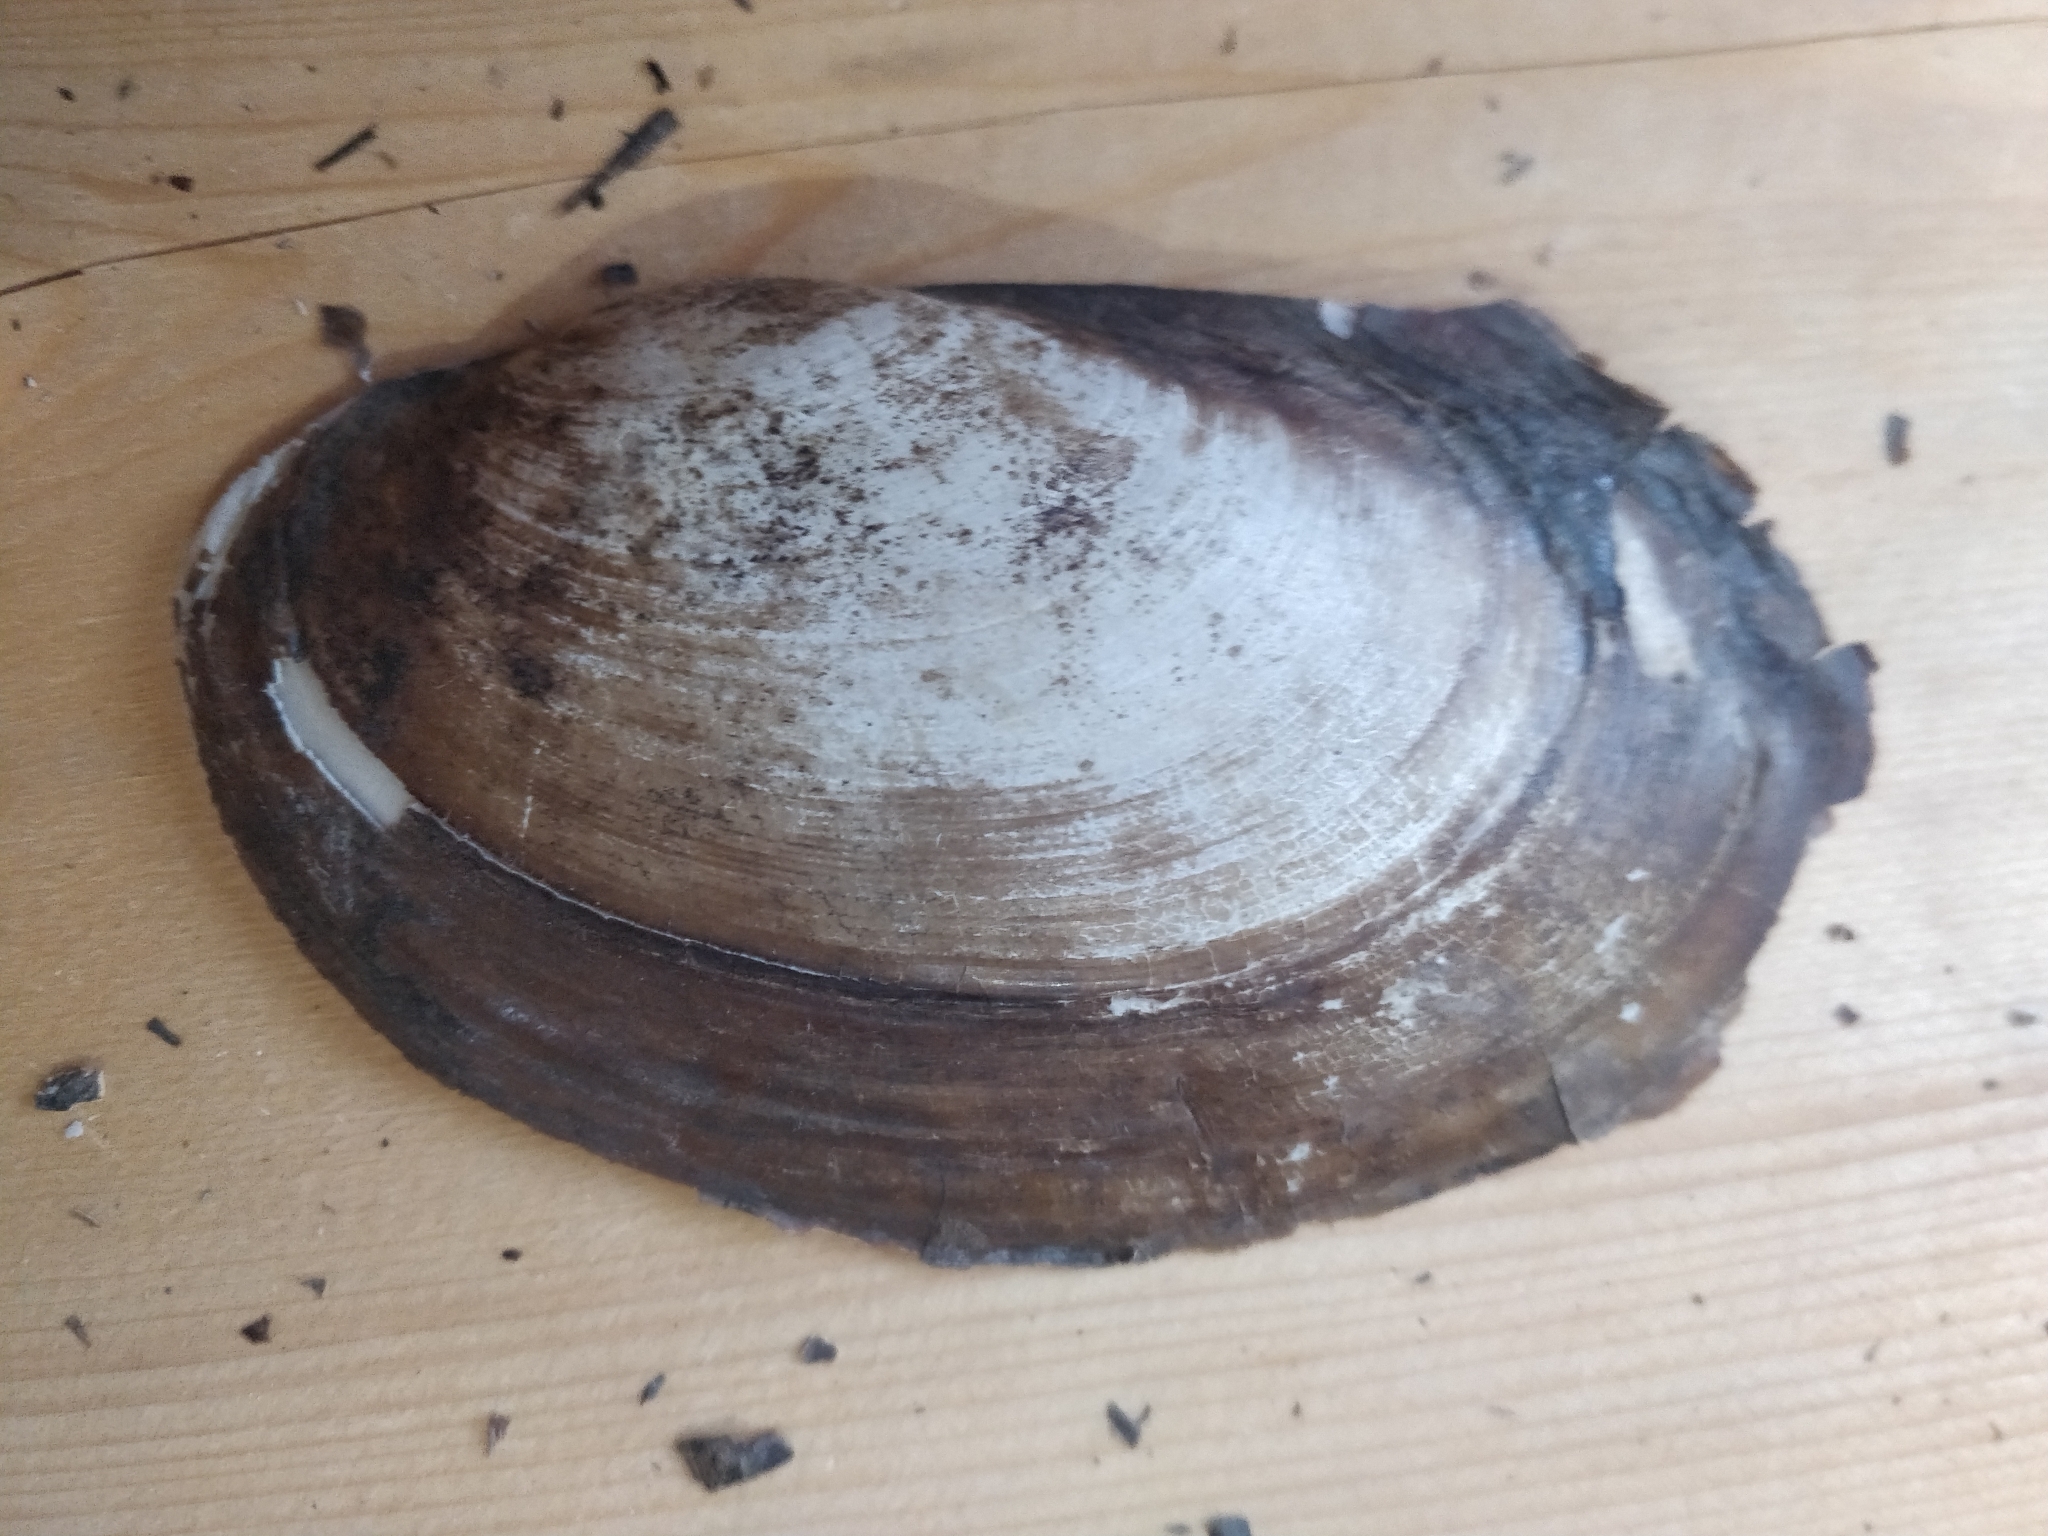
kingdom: Animalia
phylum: Mollusca
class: Bivalvia
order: Unionida
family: Unionidae
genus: Potamilus
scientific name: Potamilus fragilis
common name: Fragile papershell
